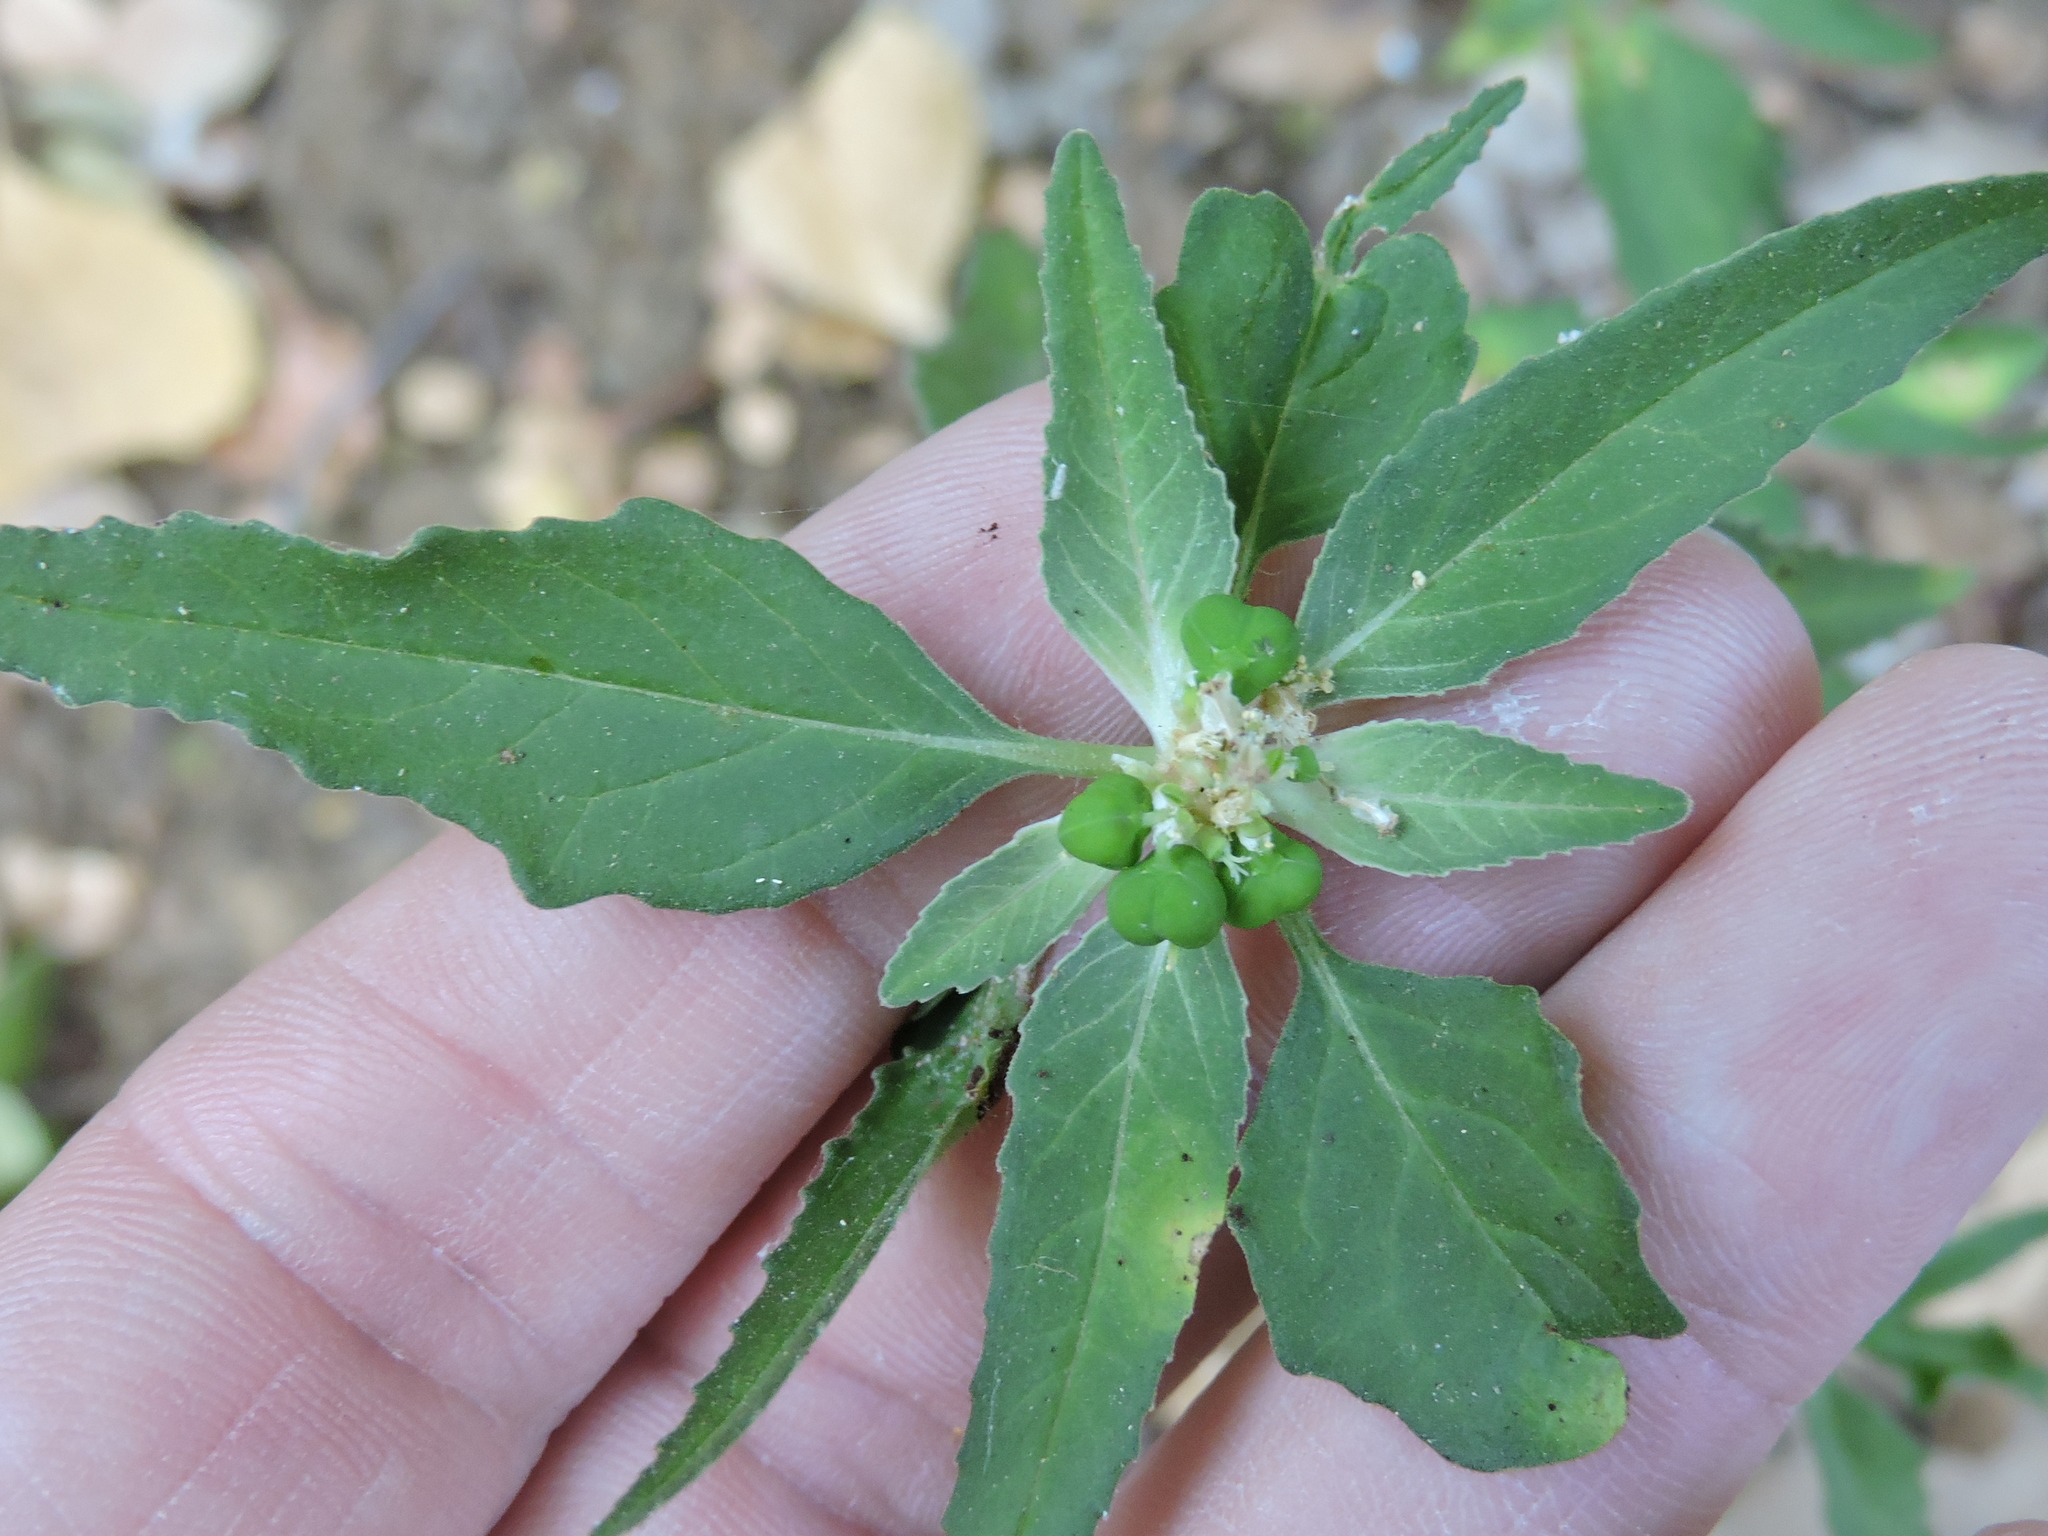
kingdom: Plantae
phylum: Tracheophyta
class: Magnoliopsida
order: Malpighiales
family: Euphorbiaceae
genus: Euphorbia
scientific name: Euphorbia dentata
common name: Dentate spurge
